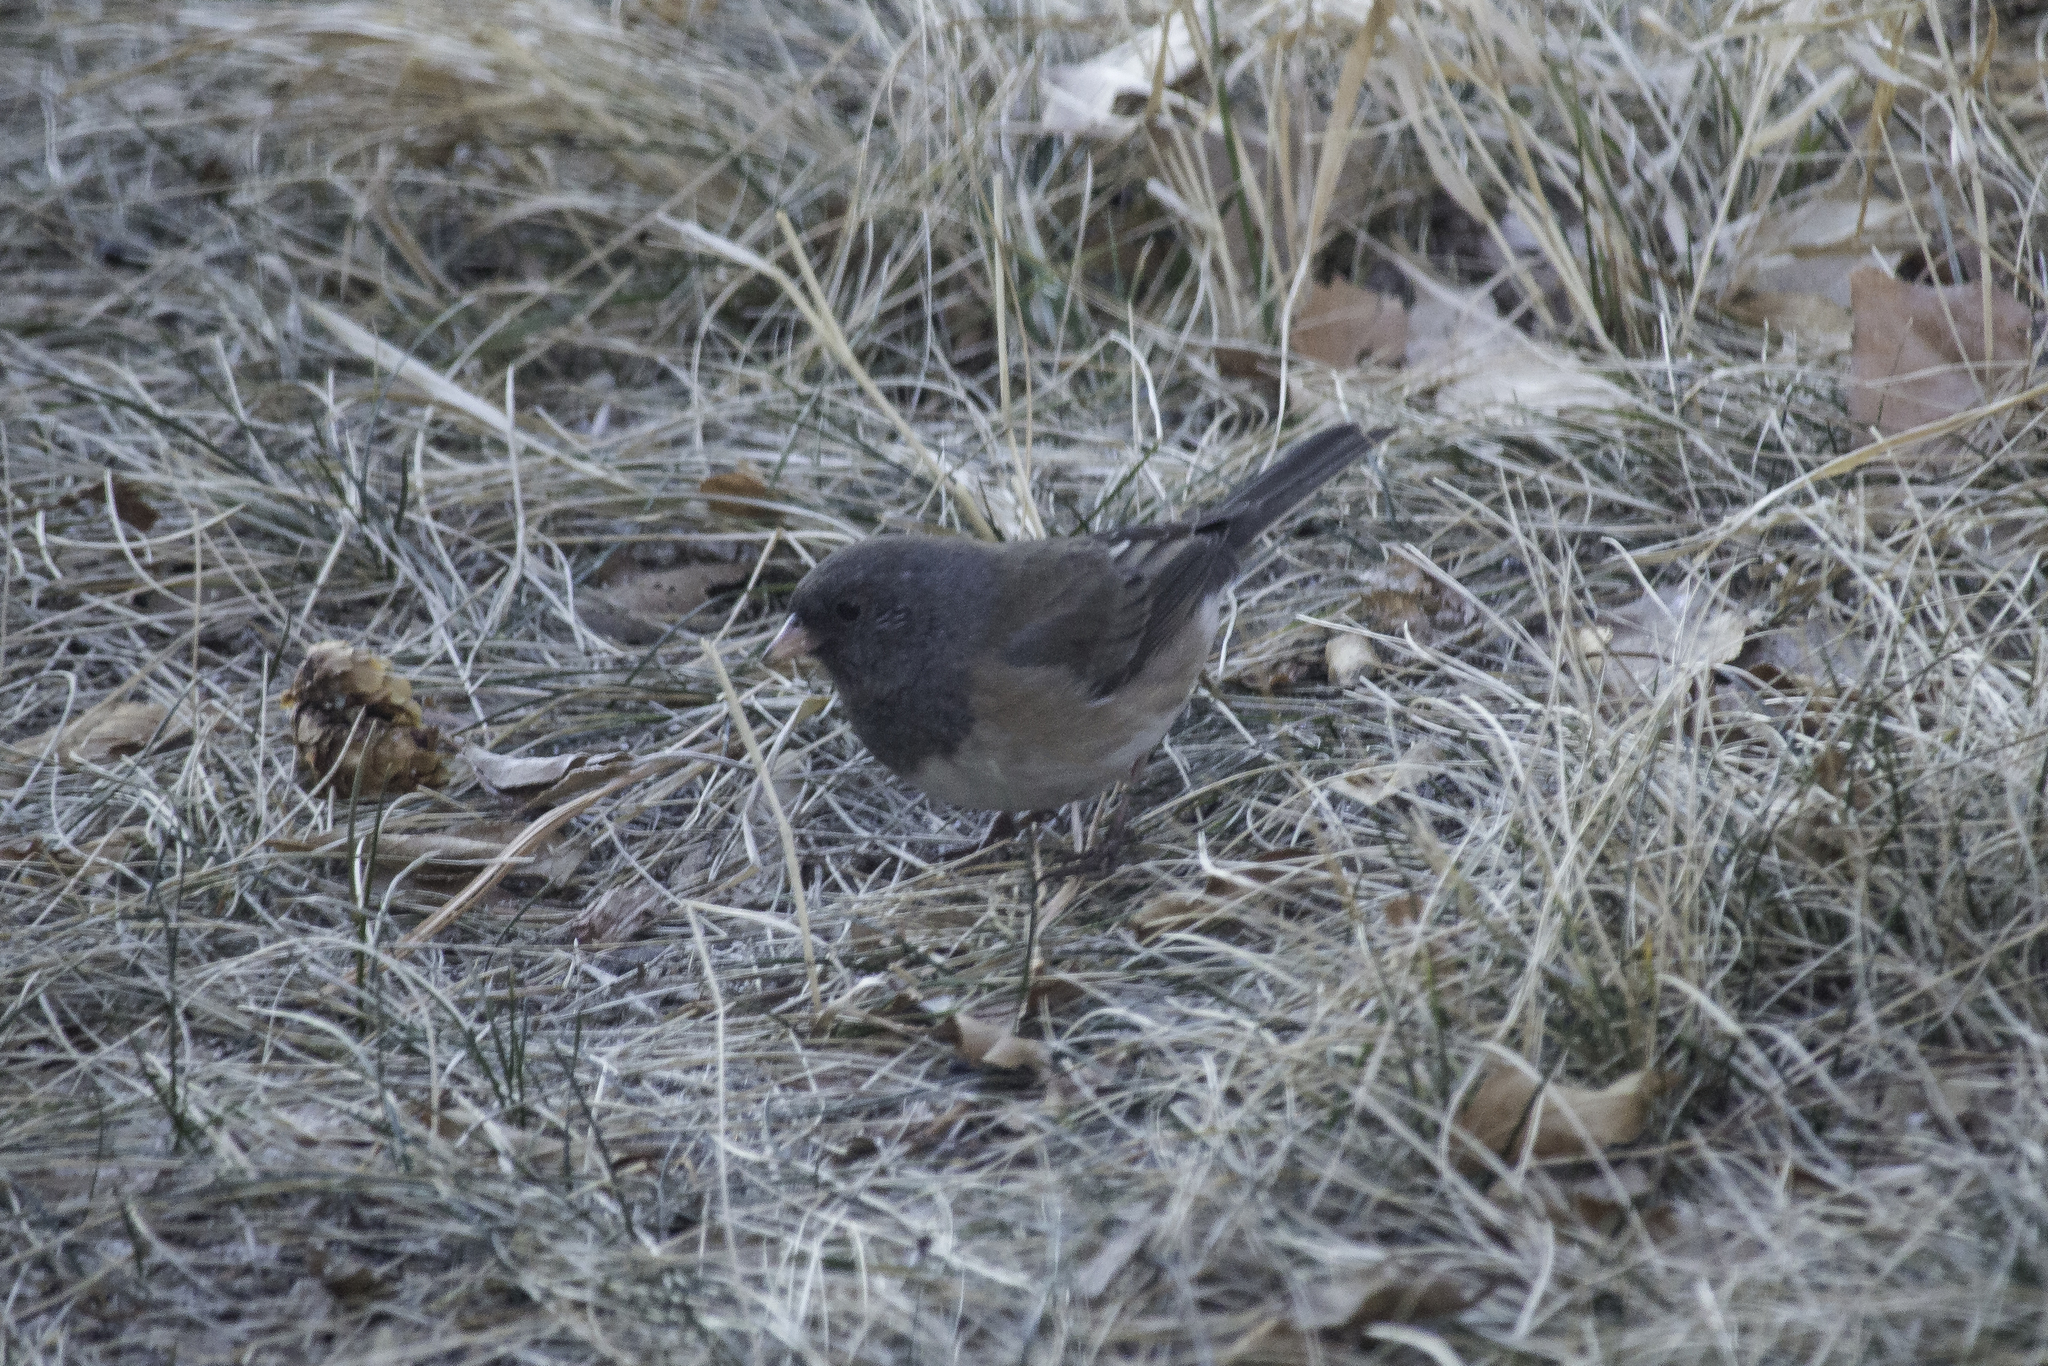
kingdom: Animalia
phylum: Chordata
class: Aves
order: Passeriformes
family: Passerellidae
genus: Junco
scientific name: Junco hyemalis
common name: Dark-eyed junco
